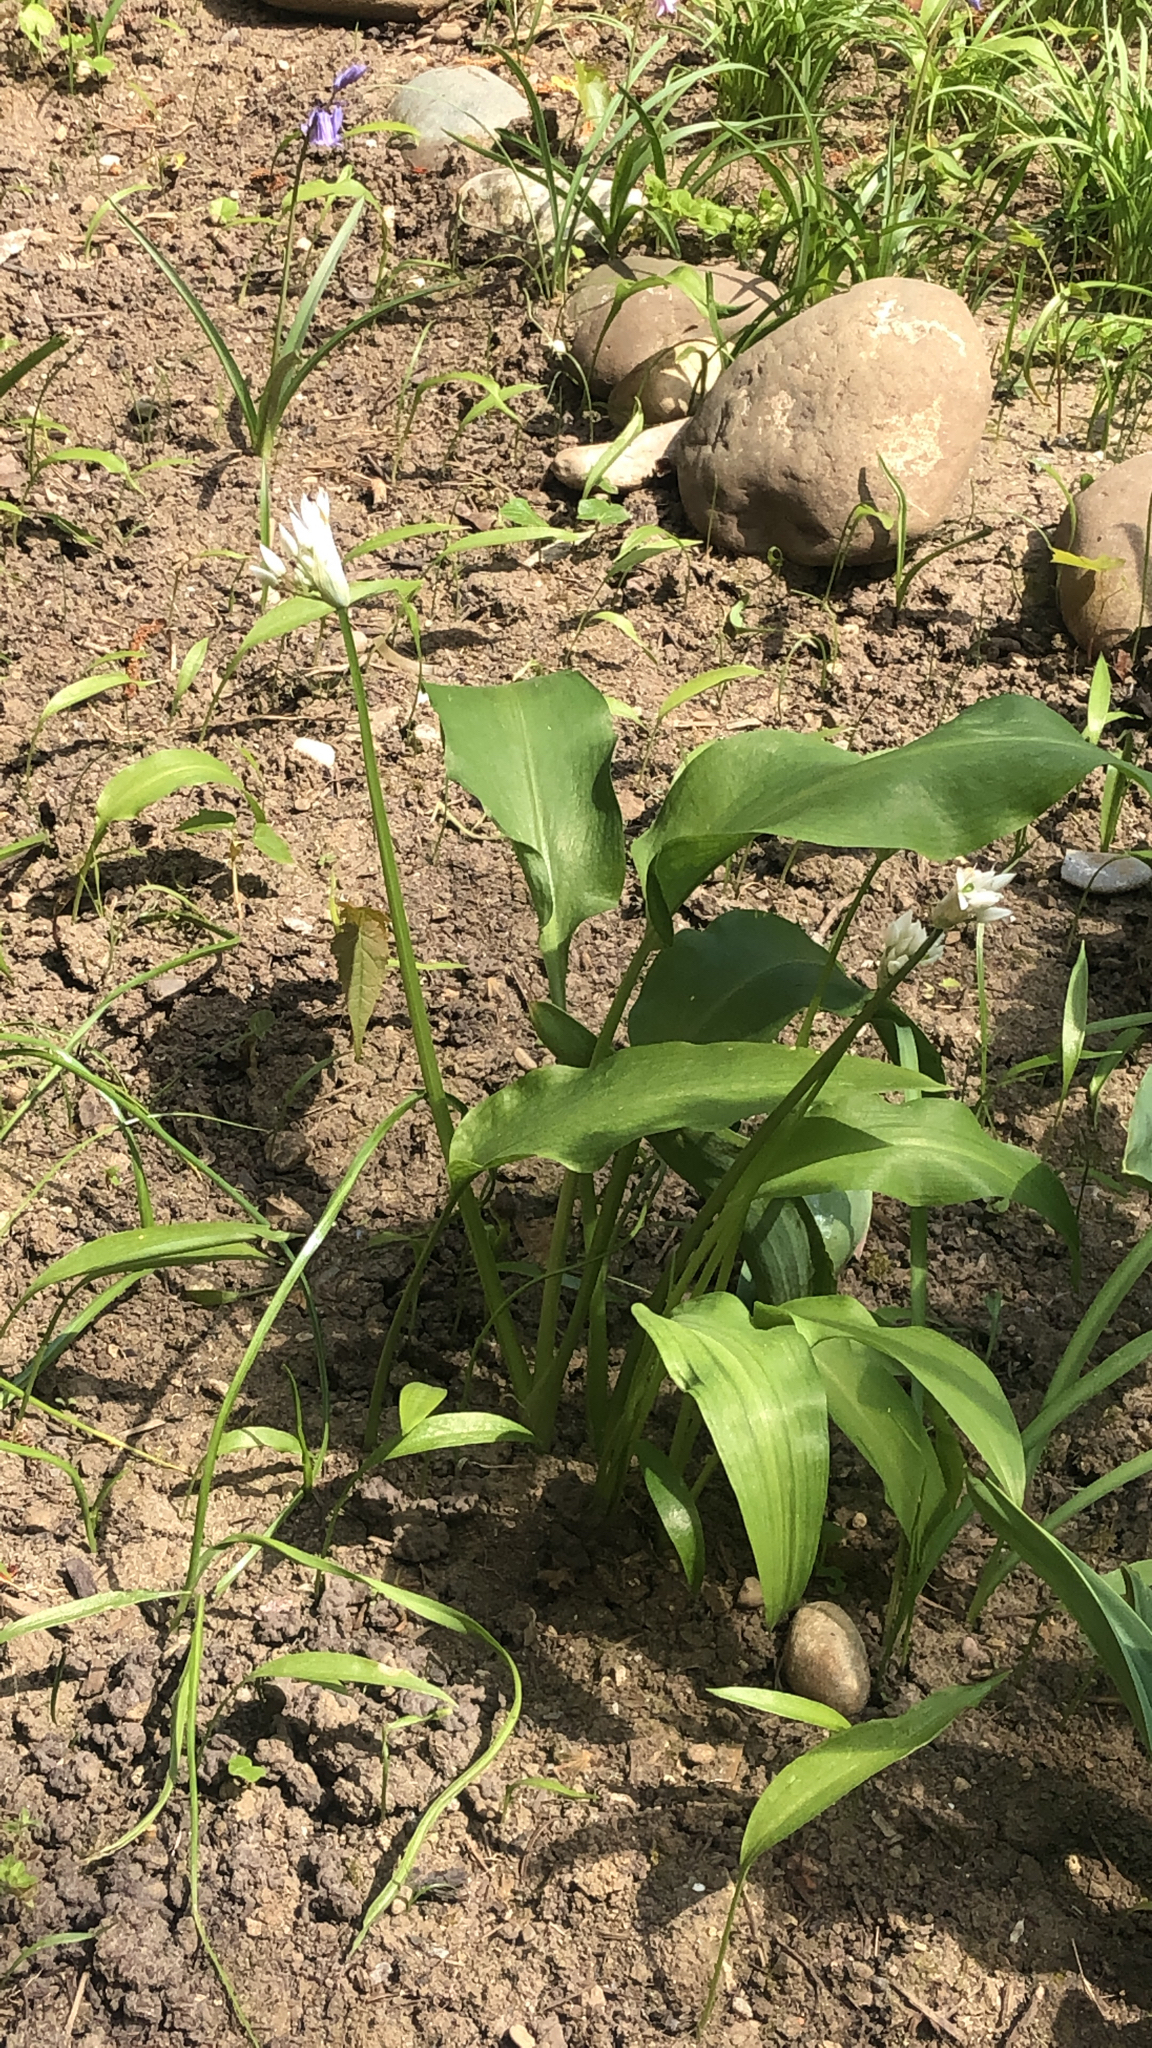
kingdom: Plantae
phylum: Tracheophyta
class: Liliopsida
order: Asparagales
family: Amaryllidaceae
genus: Allium
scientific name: Allium ursinum
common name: Ramsons
